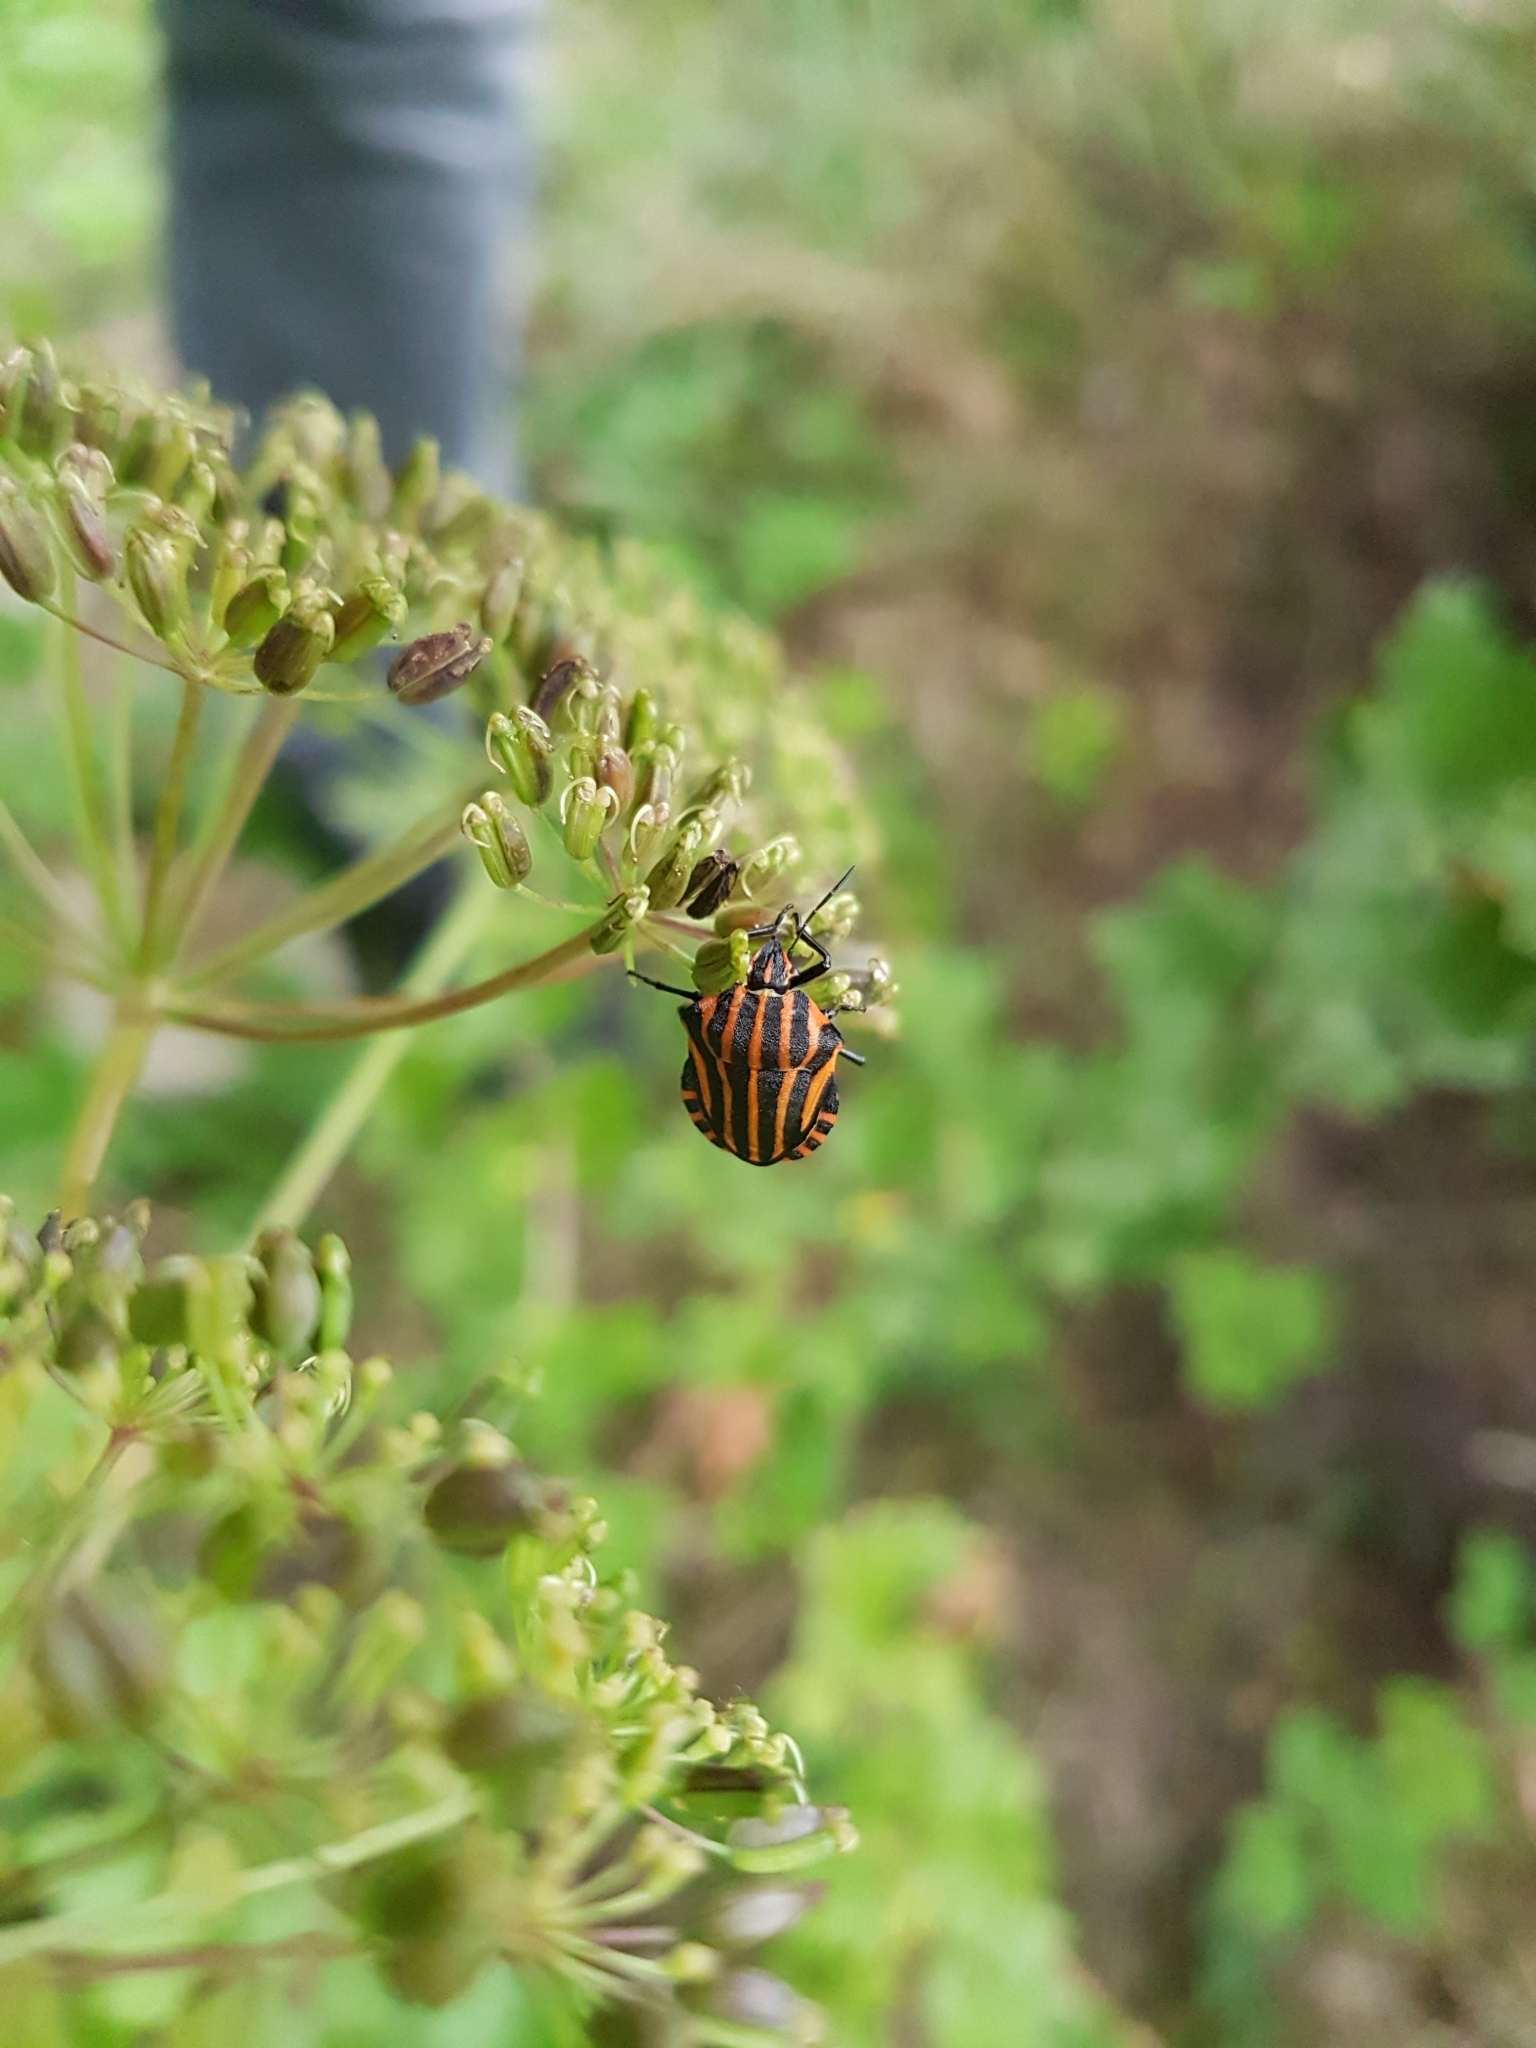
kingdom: Animalia
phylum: Arthropoda
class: Insecta
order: Hemiptera
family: Pentatomidae
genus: Graphosoma
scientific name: Graphosoma italicum
